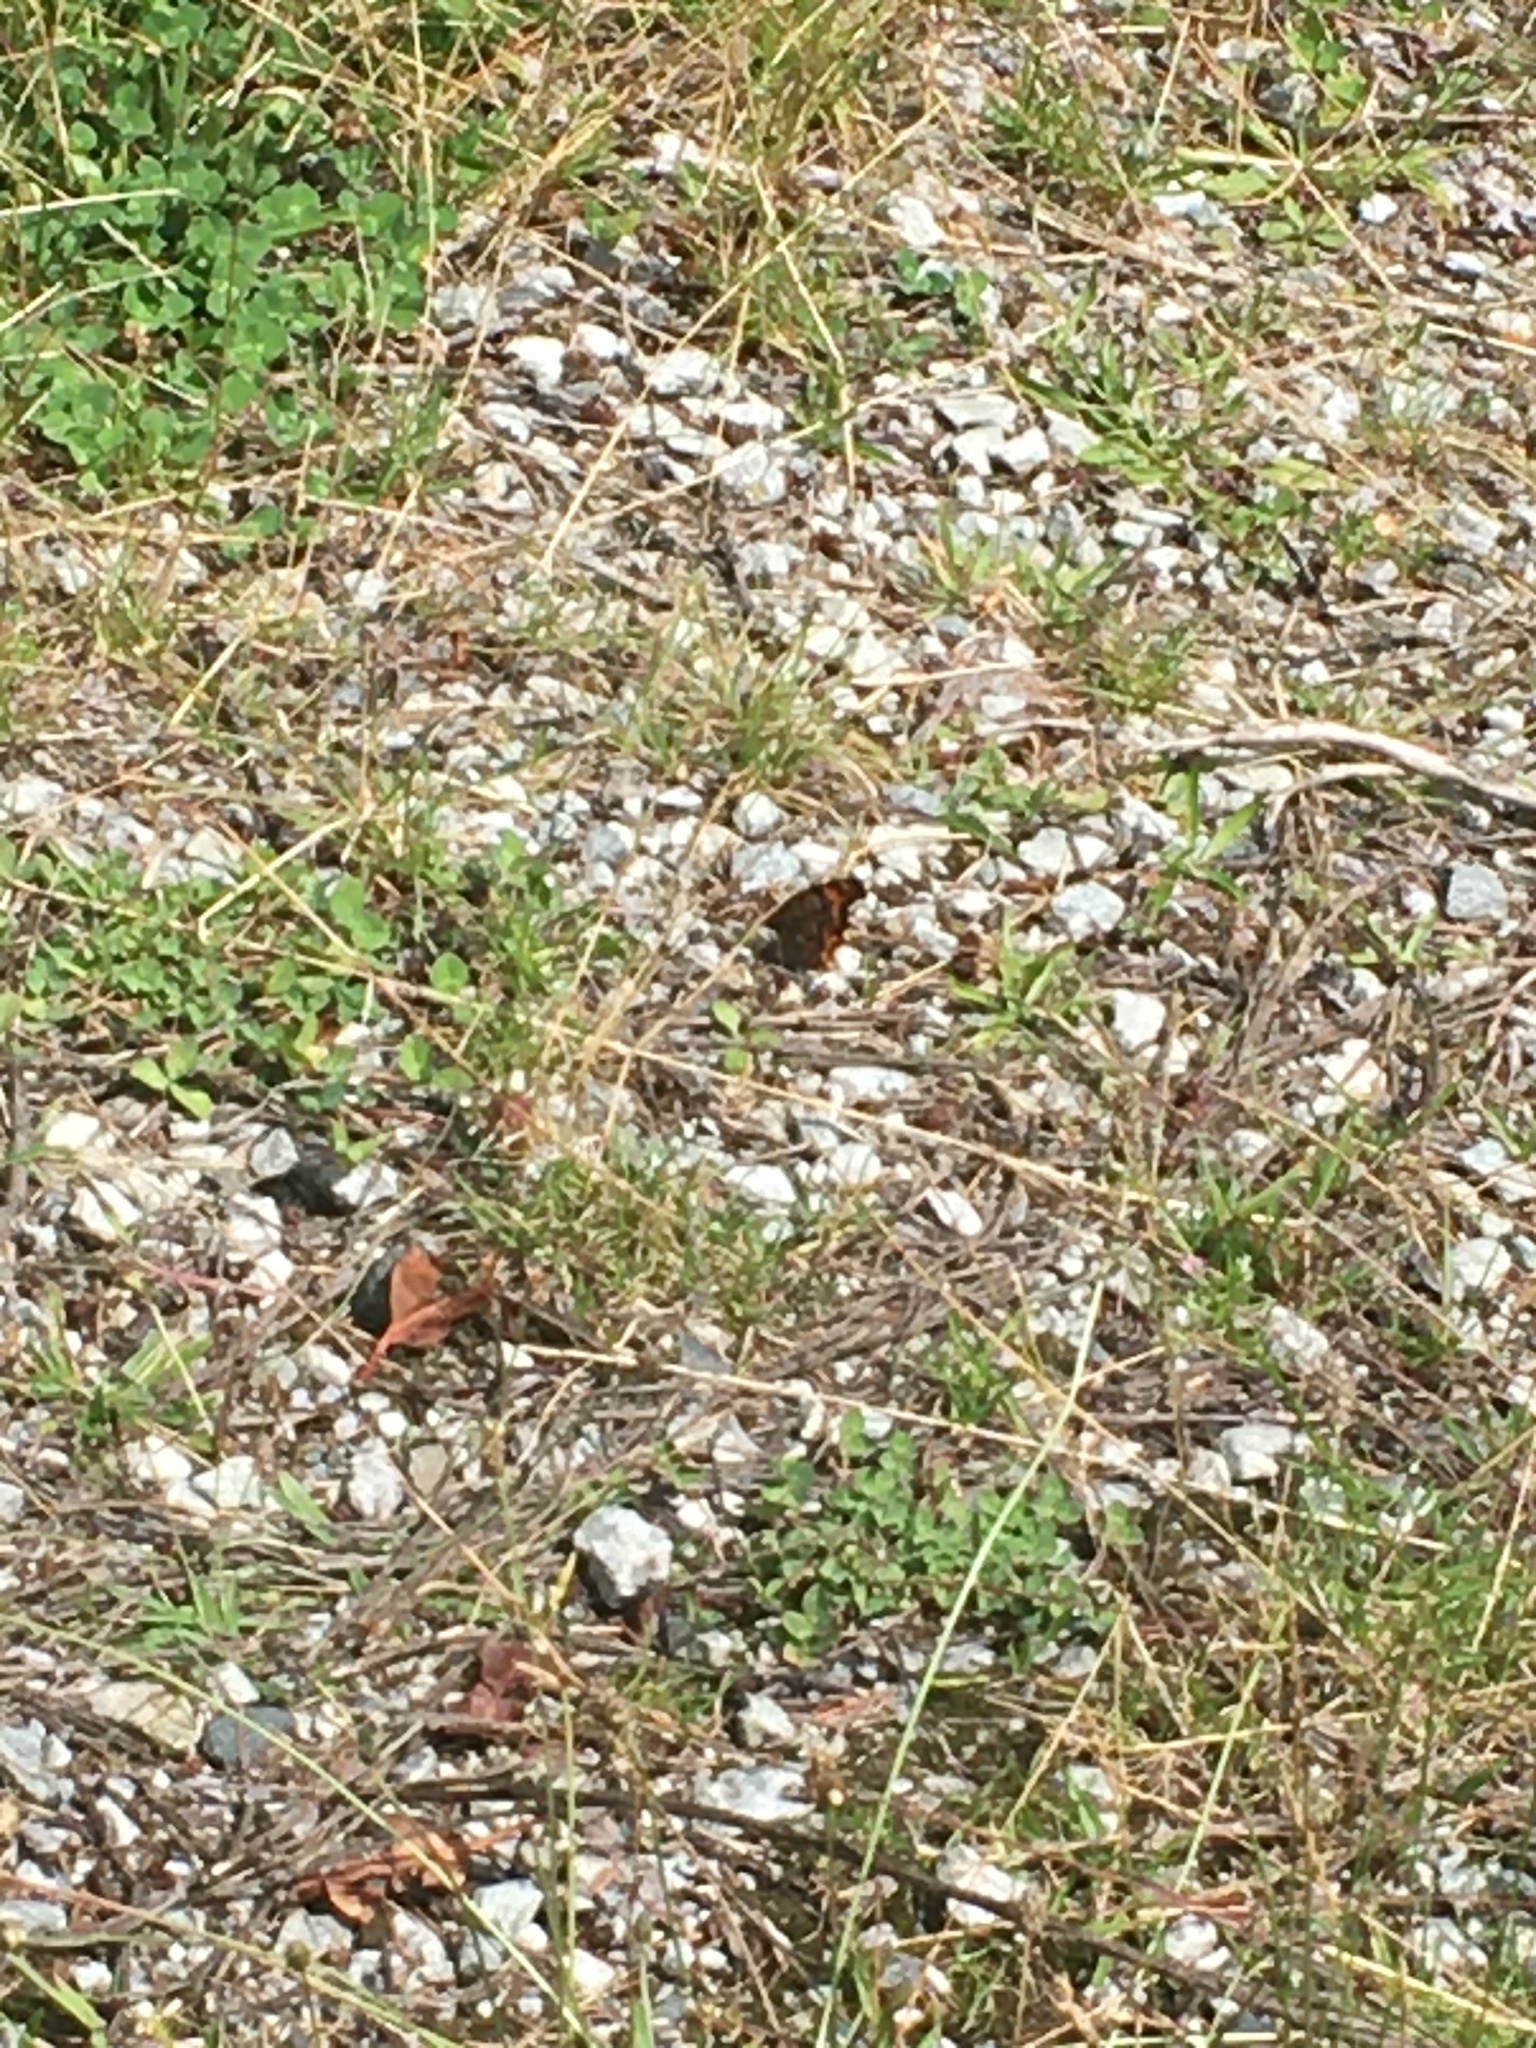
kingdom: Animalia
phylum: Arthropoda
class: Insecta
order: Lepidoptera
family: Nymphalidae
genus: Polygonia
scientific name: Polygonia
